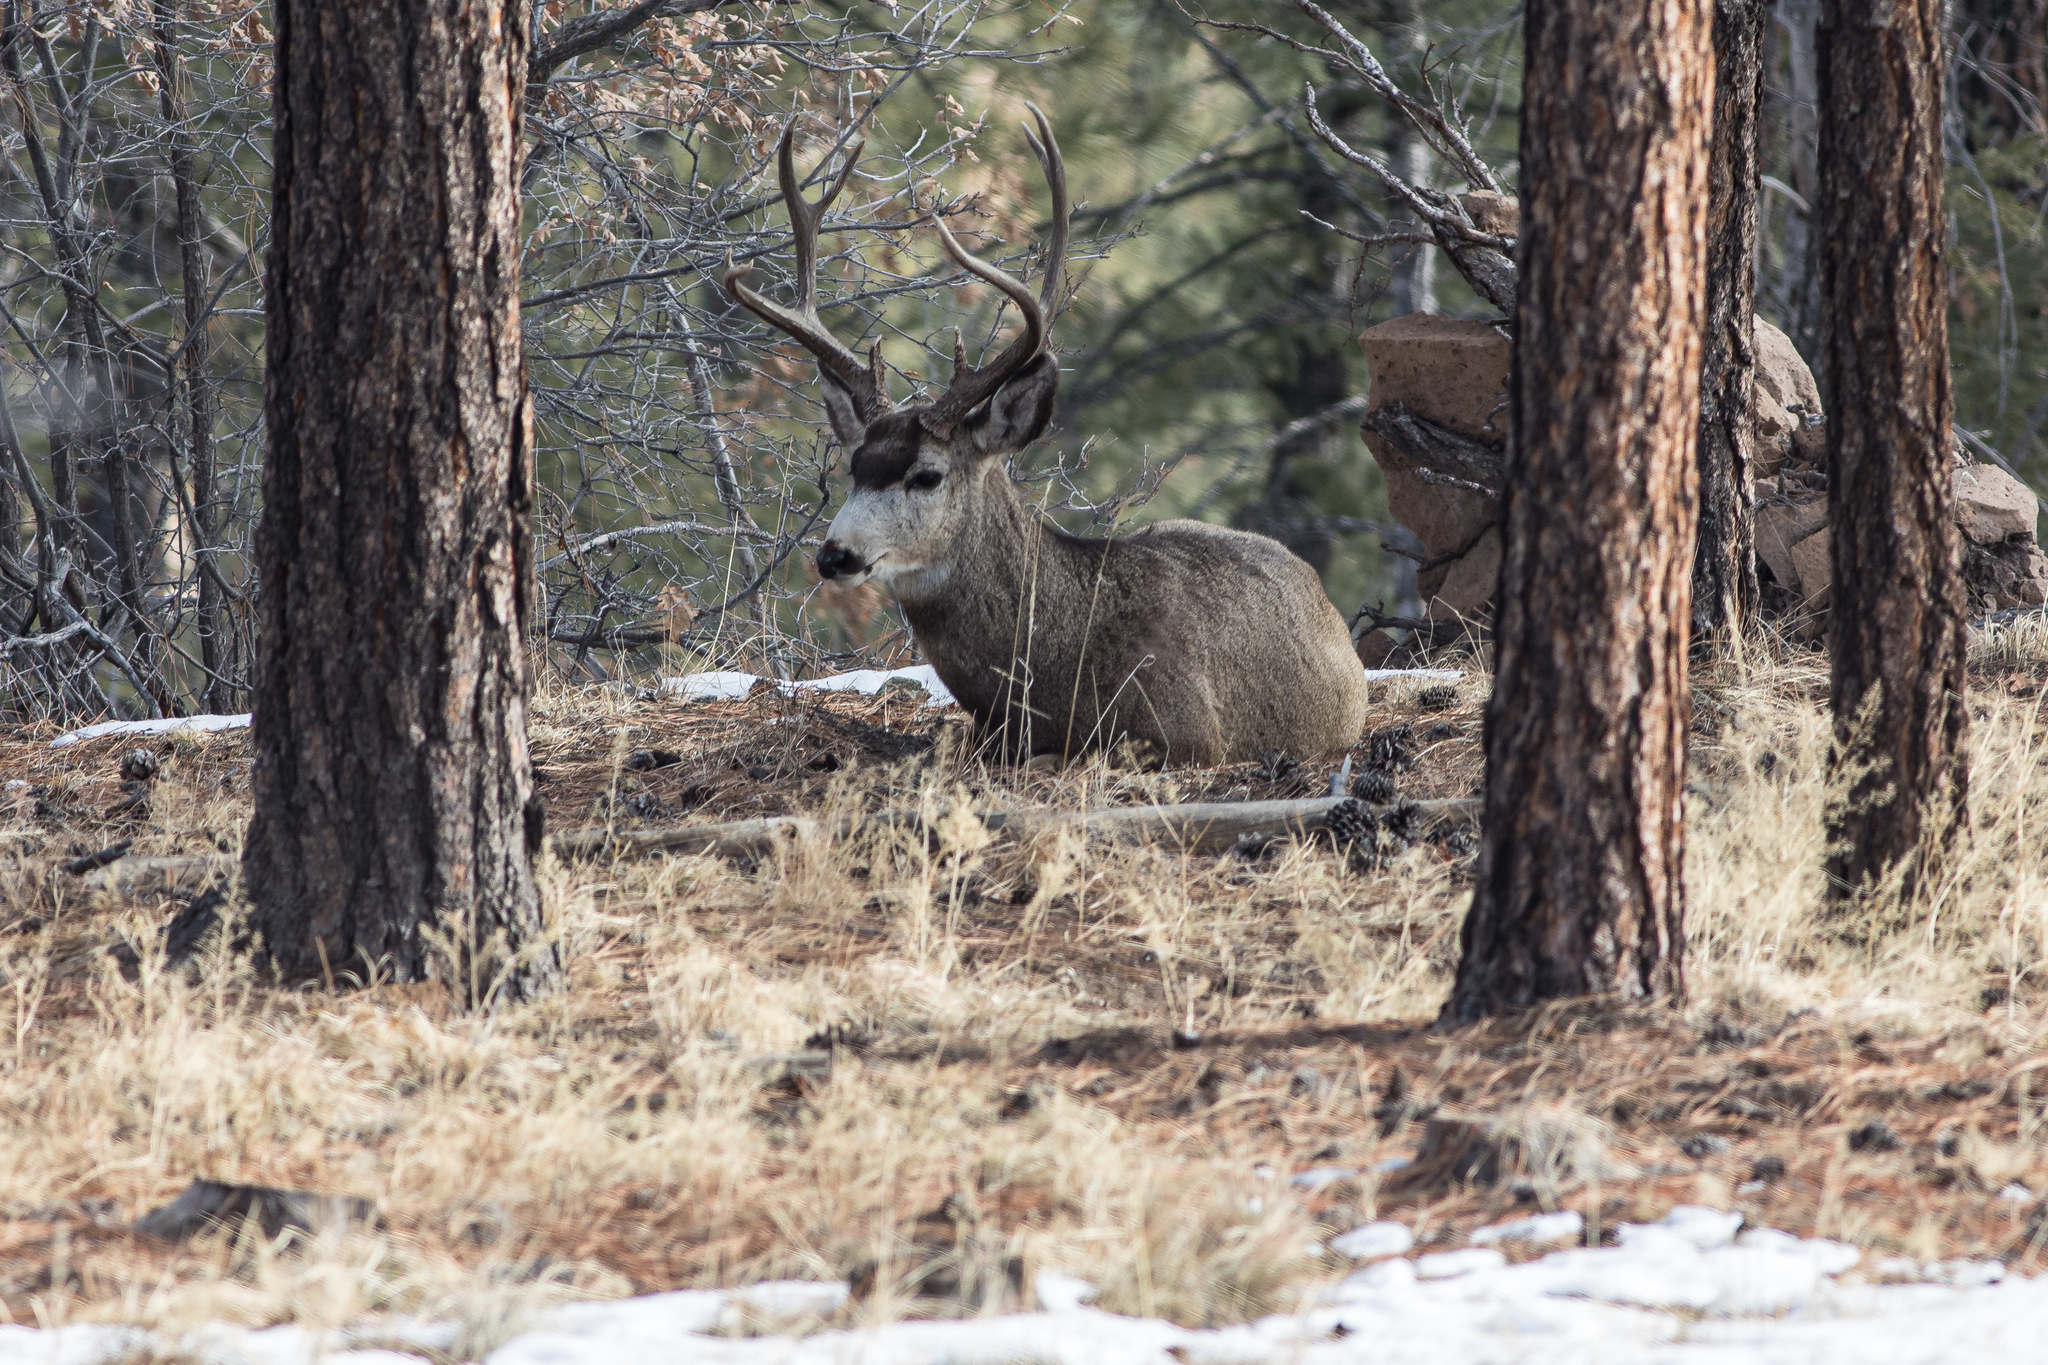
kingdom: Animalia
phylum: Chordata
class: Mammalia
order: Artiodactyla
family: Cervidae
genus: Odocoileus
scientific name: Odocoileus hemionus
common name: Mule deer
